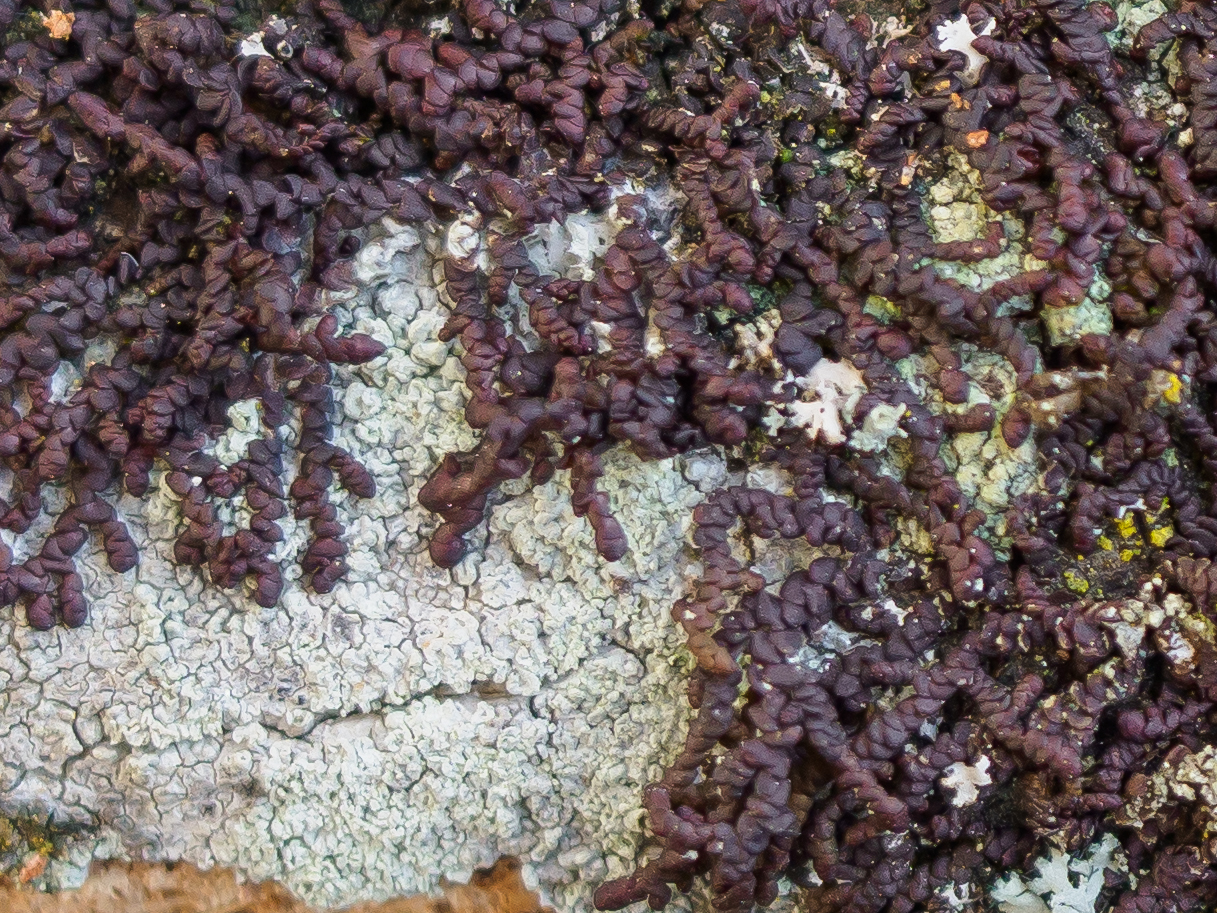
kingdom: Plantae
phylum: Marchantiophyta
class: Jungermanniopsida
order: Porellales
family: Frullaniaceae
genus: Frullania
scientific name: Frullania dilatata
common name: Dilated scalewort
